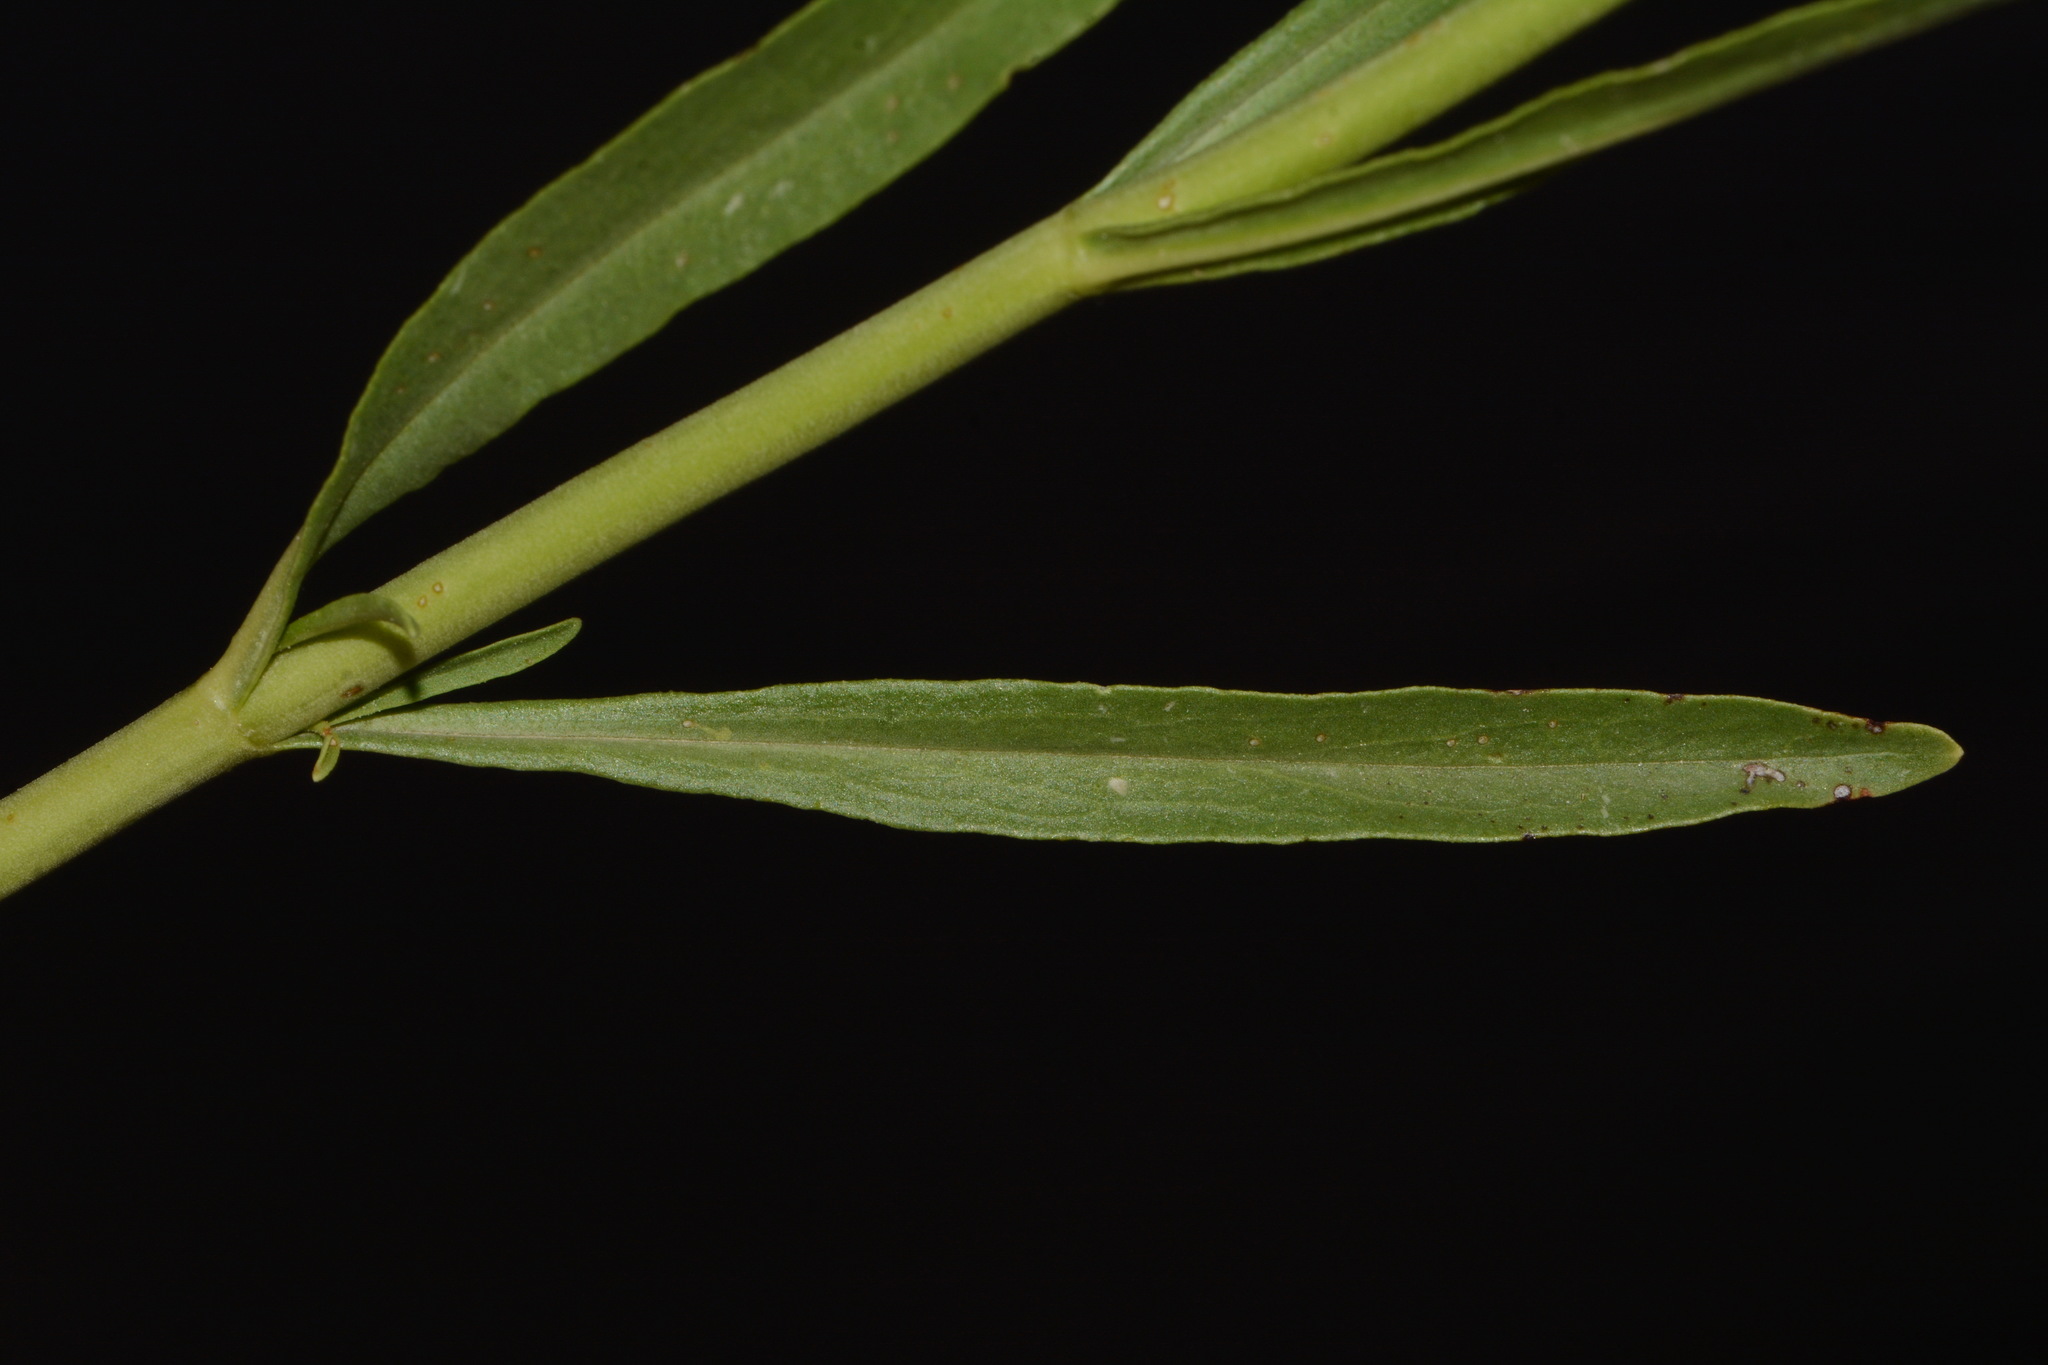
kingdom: Plantae
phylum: Tracheophyta
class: Magnoliopsida
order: Lamiales
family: Plantaginaceae
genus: Penstemon
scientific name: Penstemon rostriflorus
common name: Bridges's penstemon
